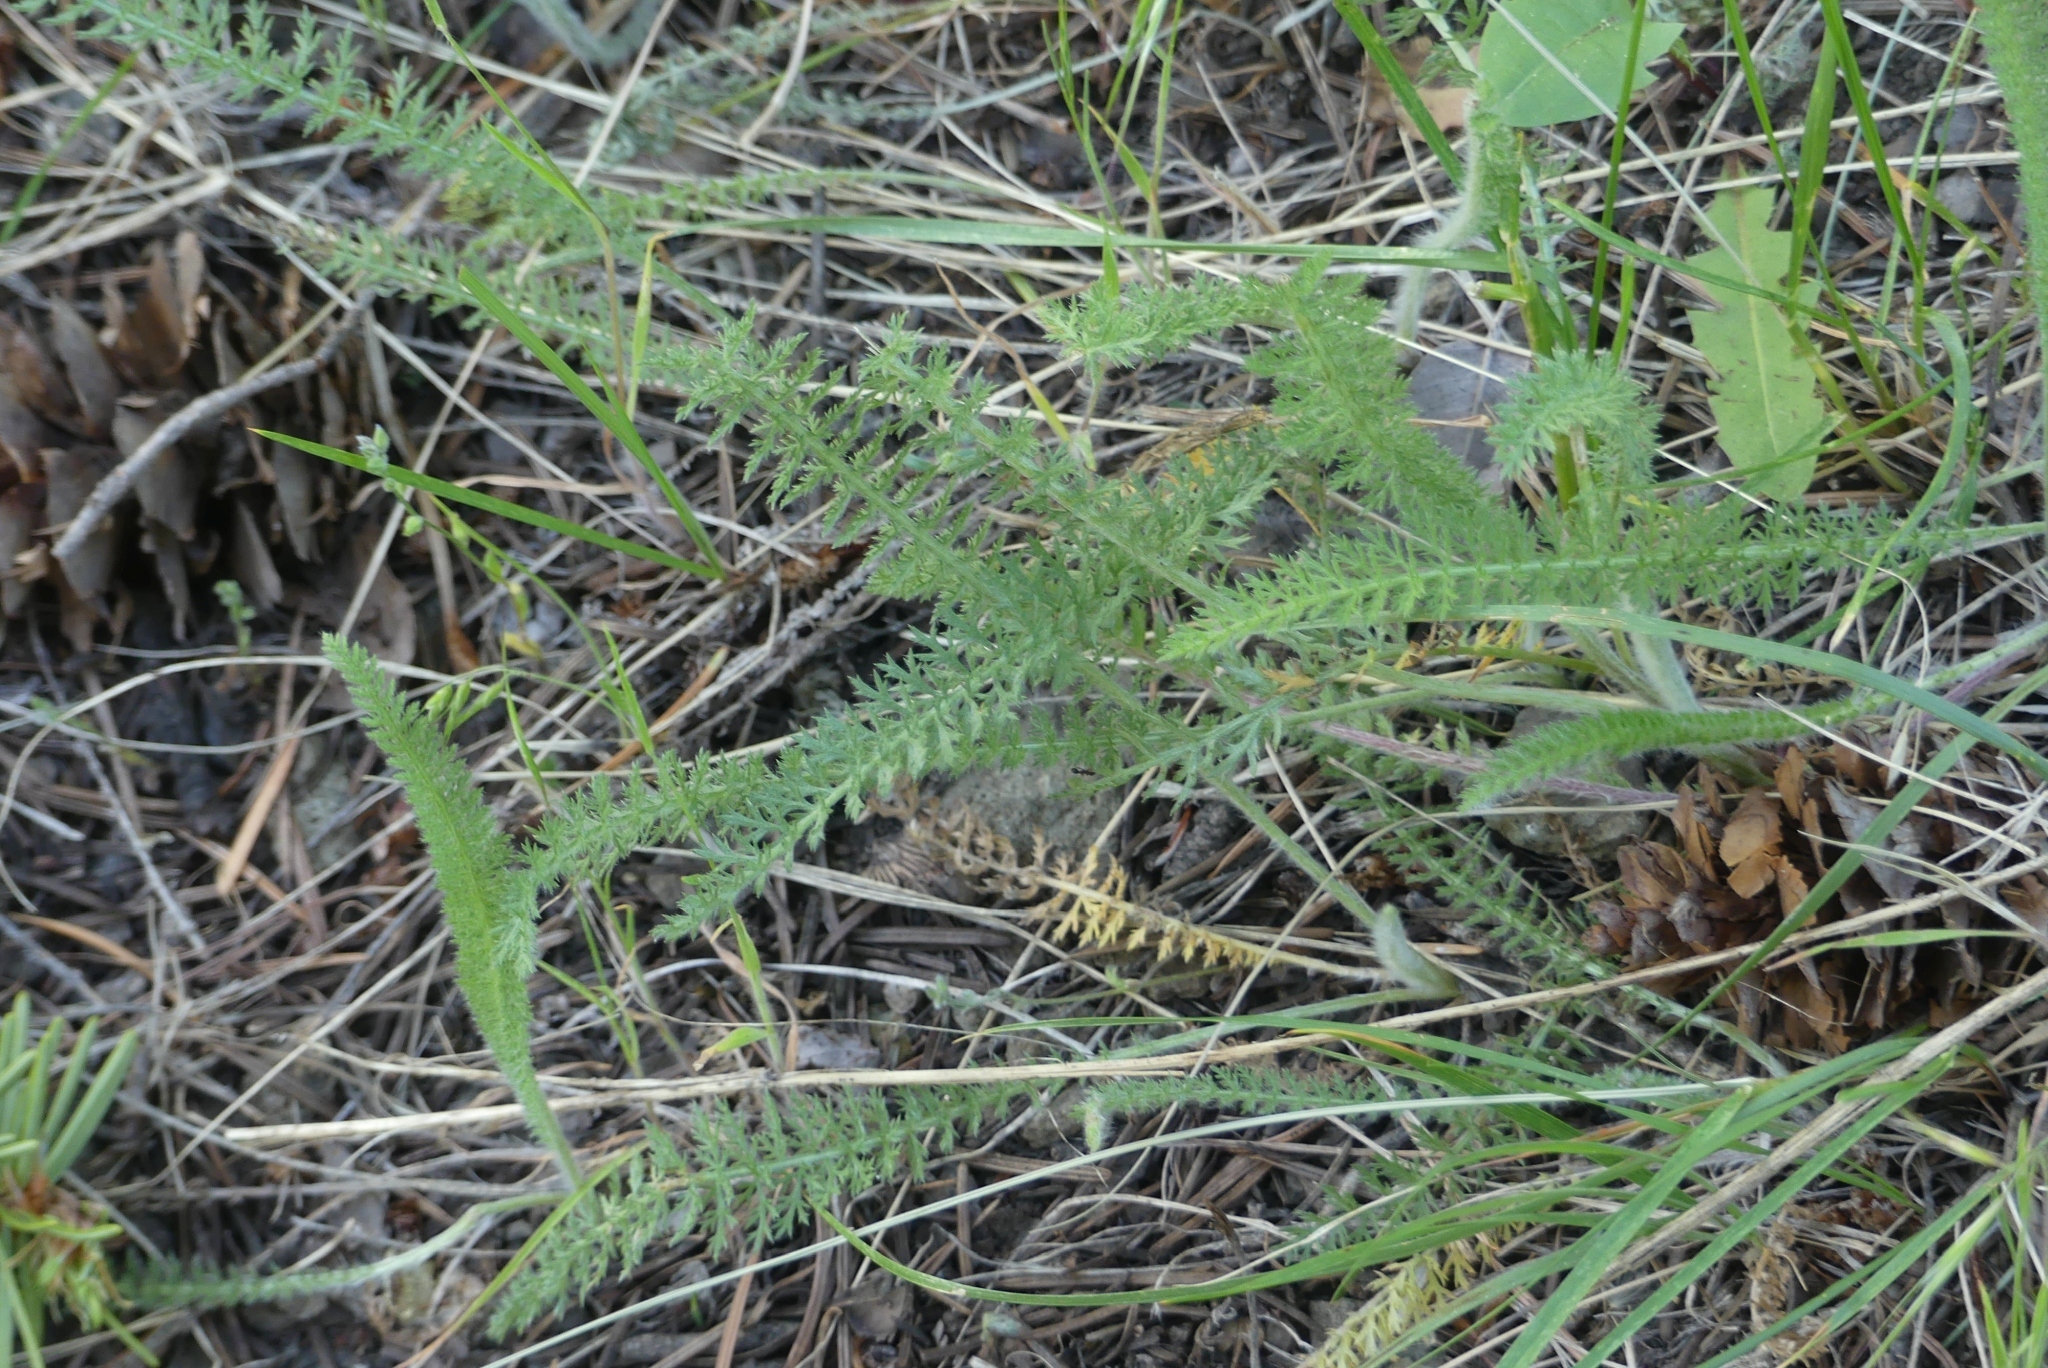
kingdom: Plantae
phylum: Tracheophyta
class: Magnoliopsida
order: Asterales
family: Asteraceae
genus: Achillea
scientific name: Achillea millefolium
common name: Yarrow
